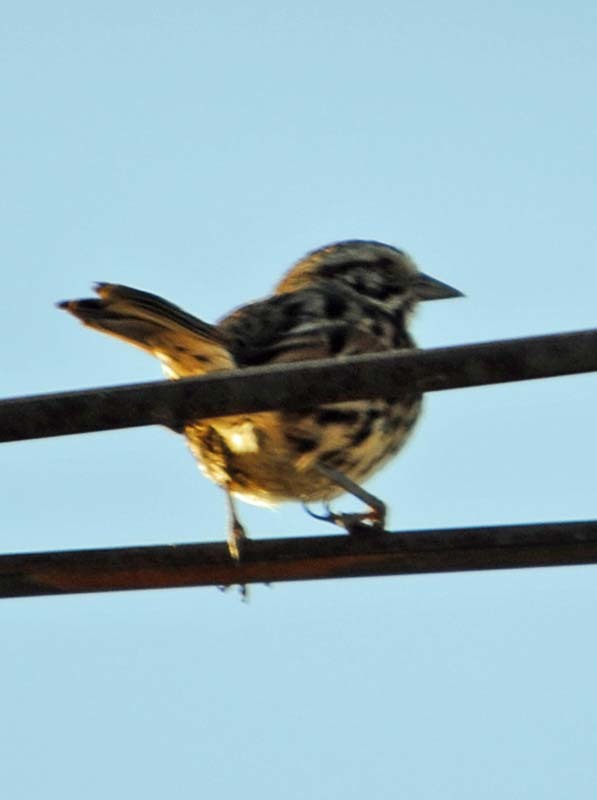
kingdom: Animalia
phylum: Chordata
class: Aves
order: Passeriformes
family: Passerellidae
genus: Melospiza
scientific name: Melospiza melodia
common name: Song sparrow
